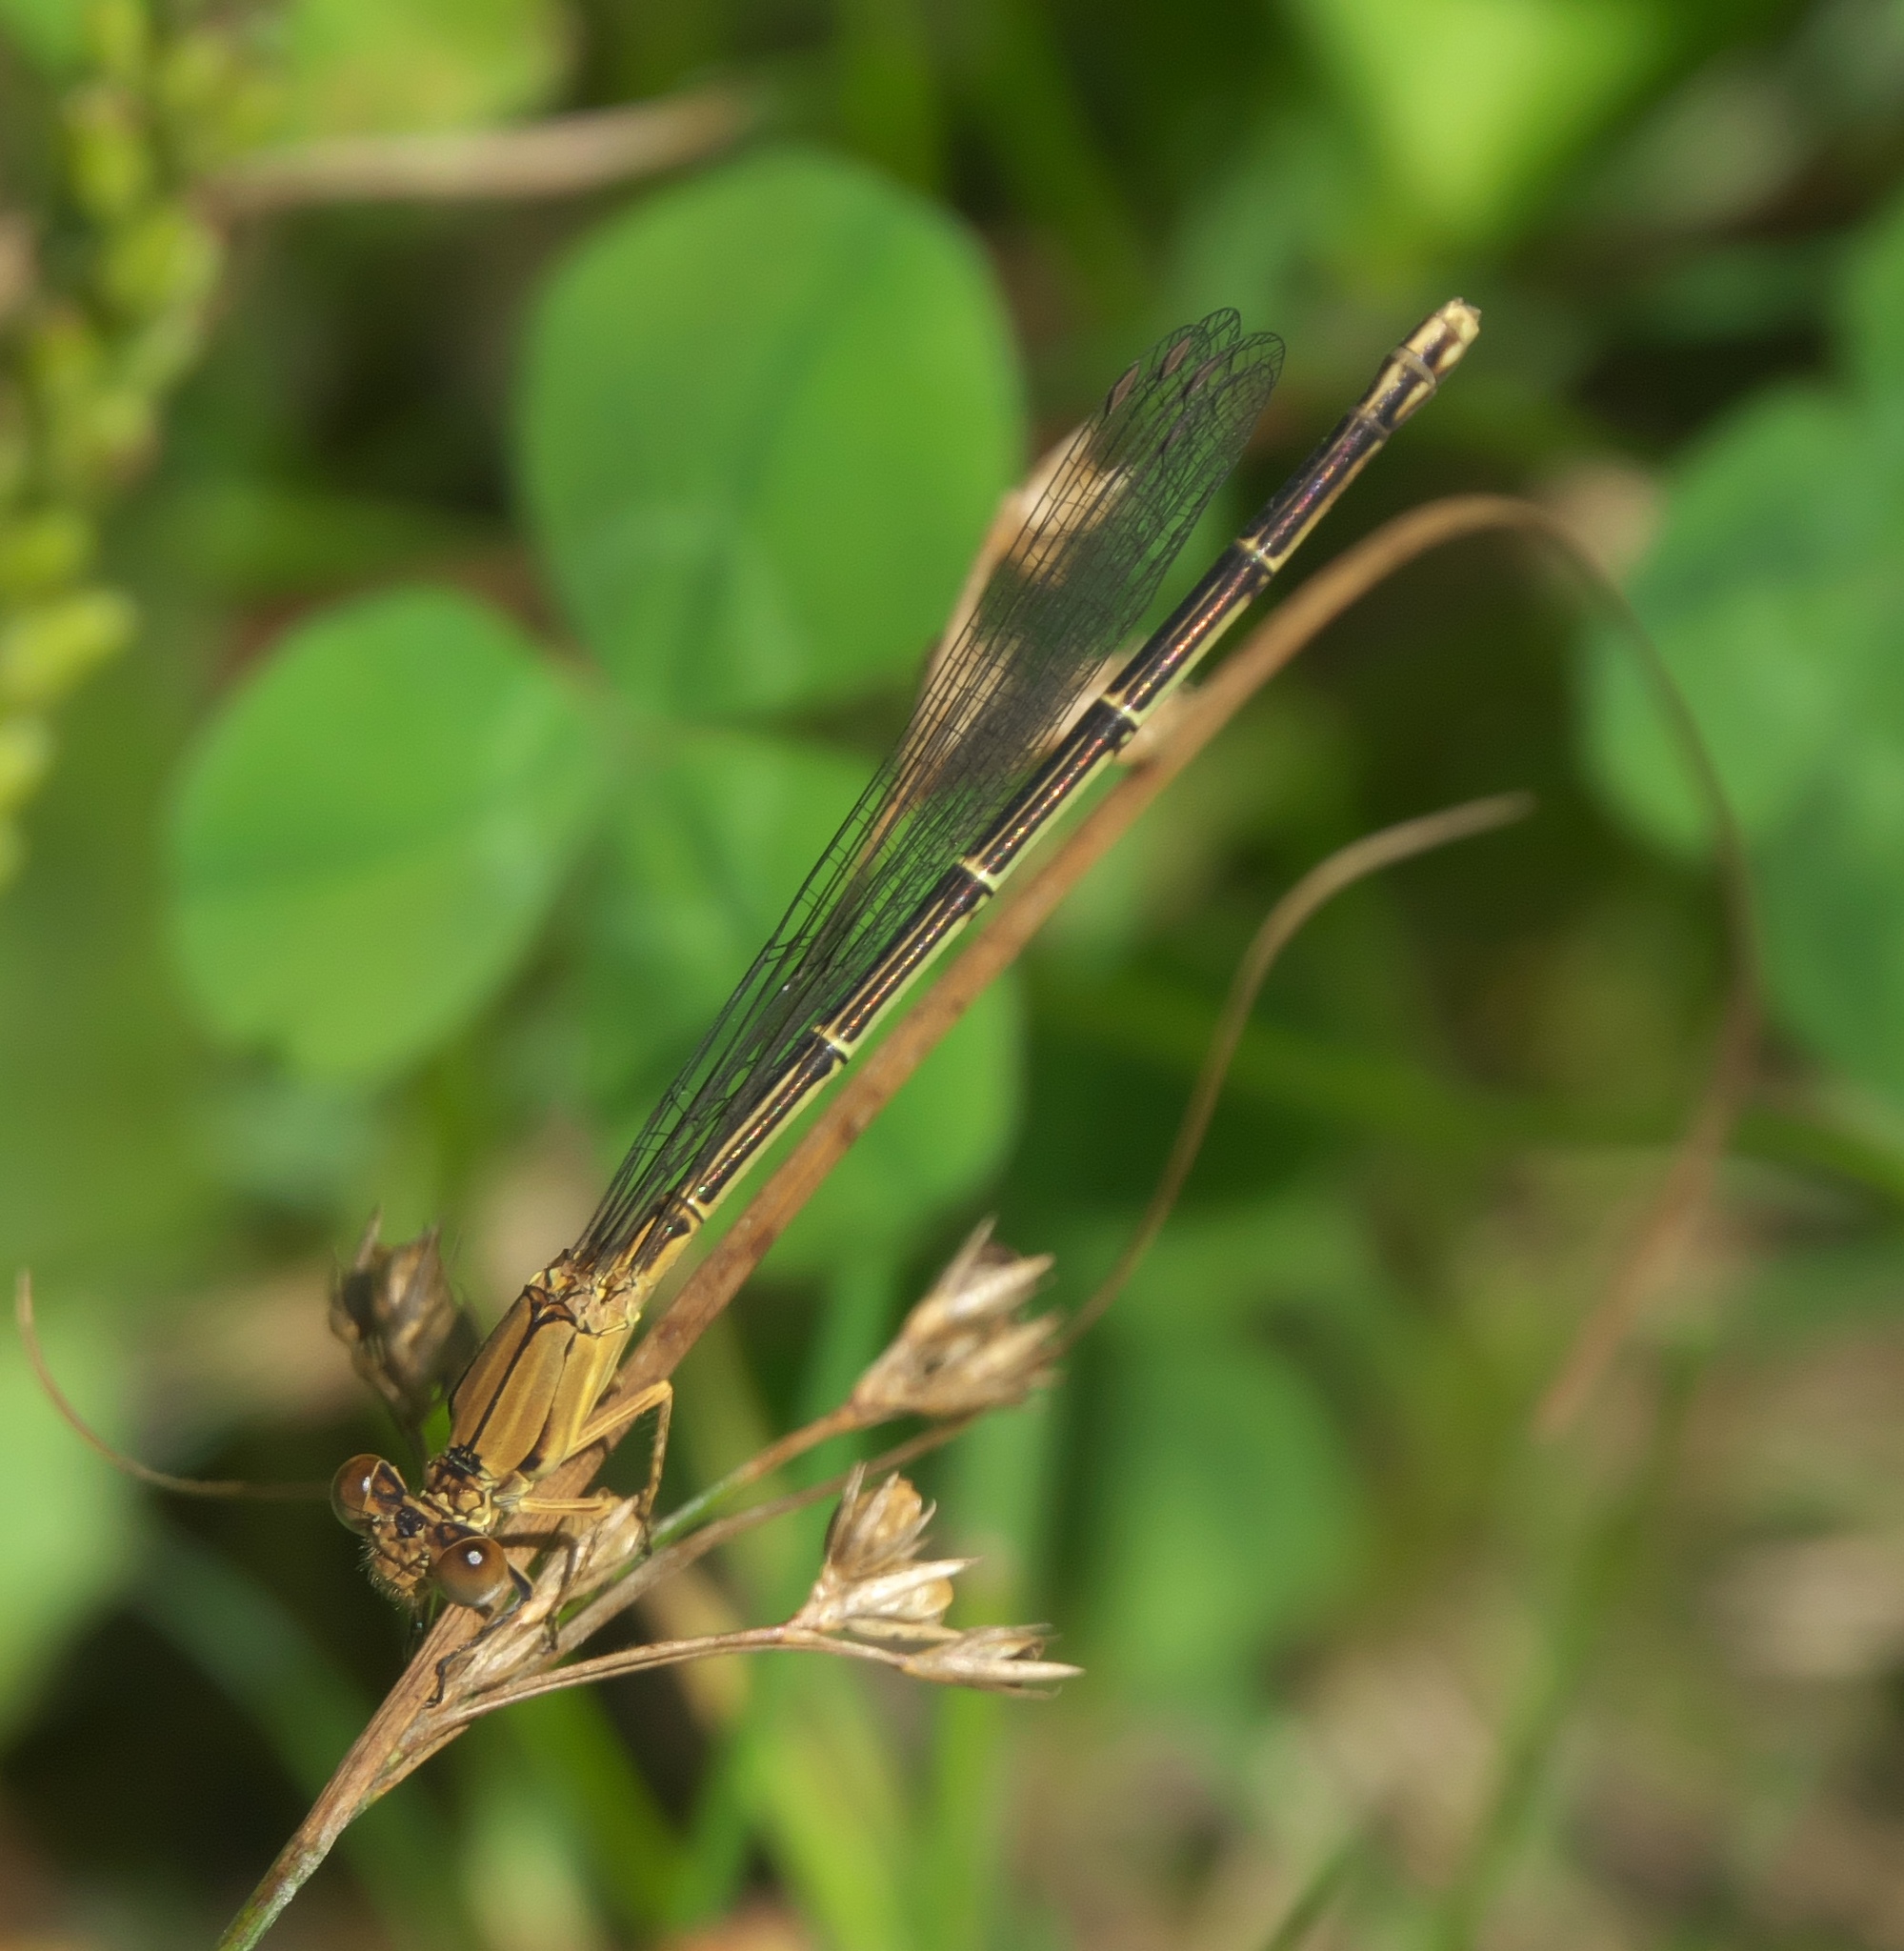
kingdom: Animalia
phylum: Arthropoda
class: Insecta
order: Odonata
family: Coenagrionidae
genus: Argia
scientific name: Argia apicalis
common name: Blue-fronted dancer
